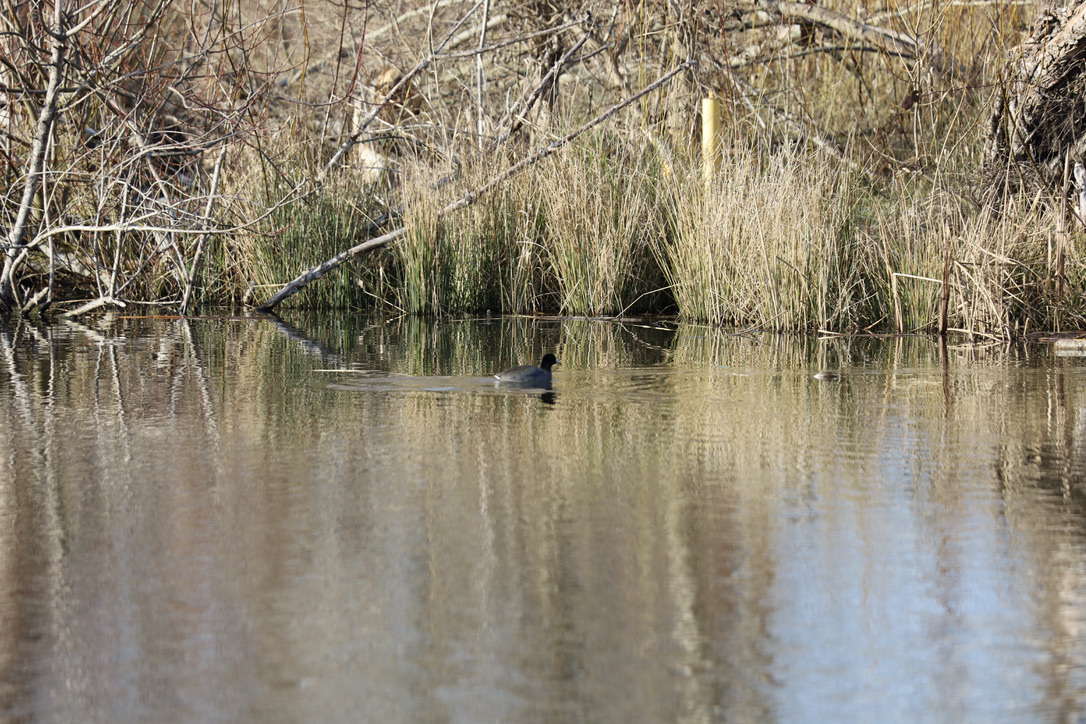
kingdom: Animalia
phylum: Chordata
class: Aves
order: Gruiformes
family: Rallidae
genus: Fulica
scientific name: Fulica americana
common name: American coot
